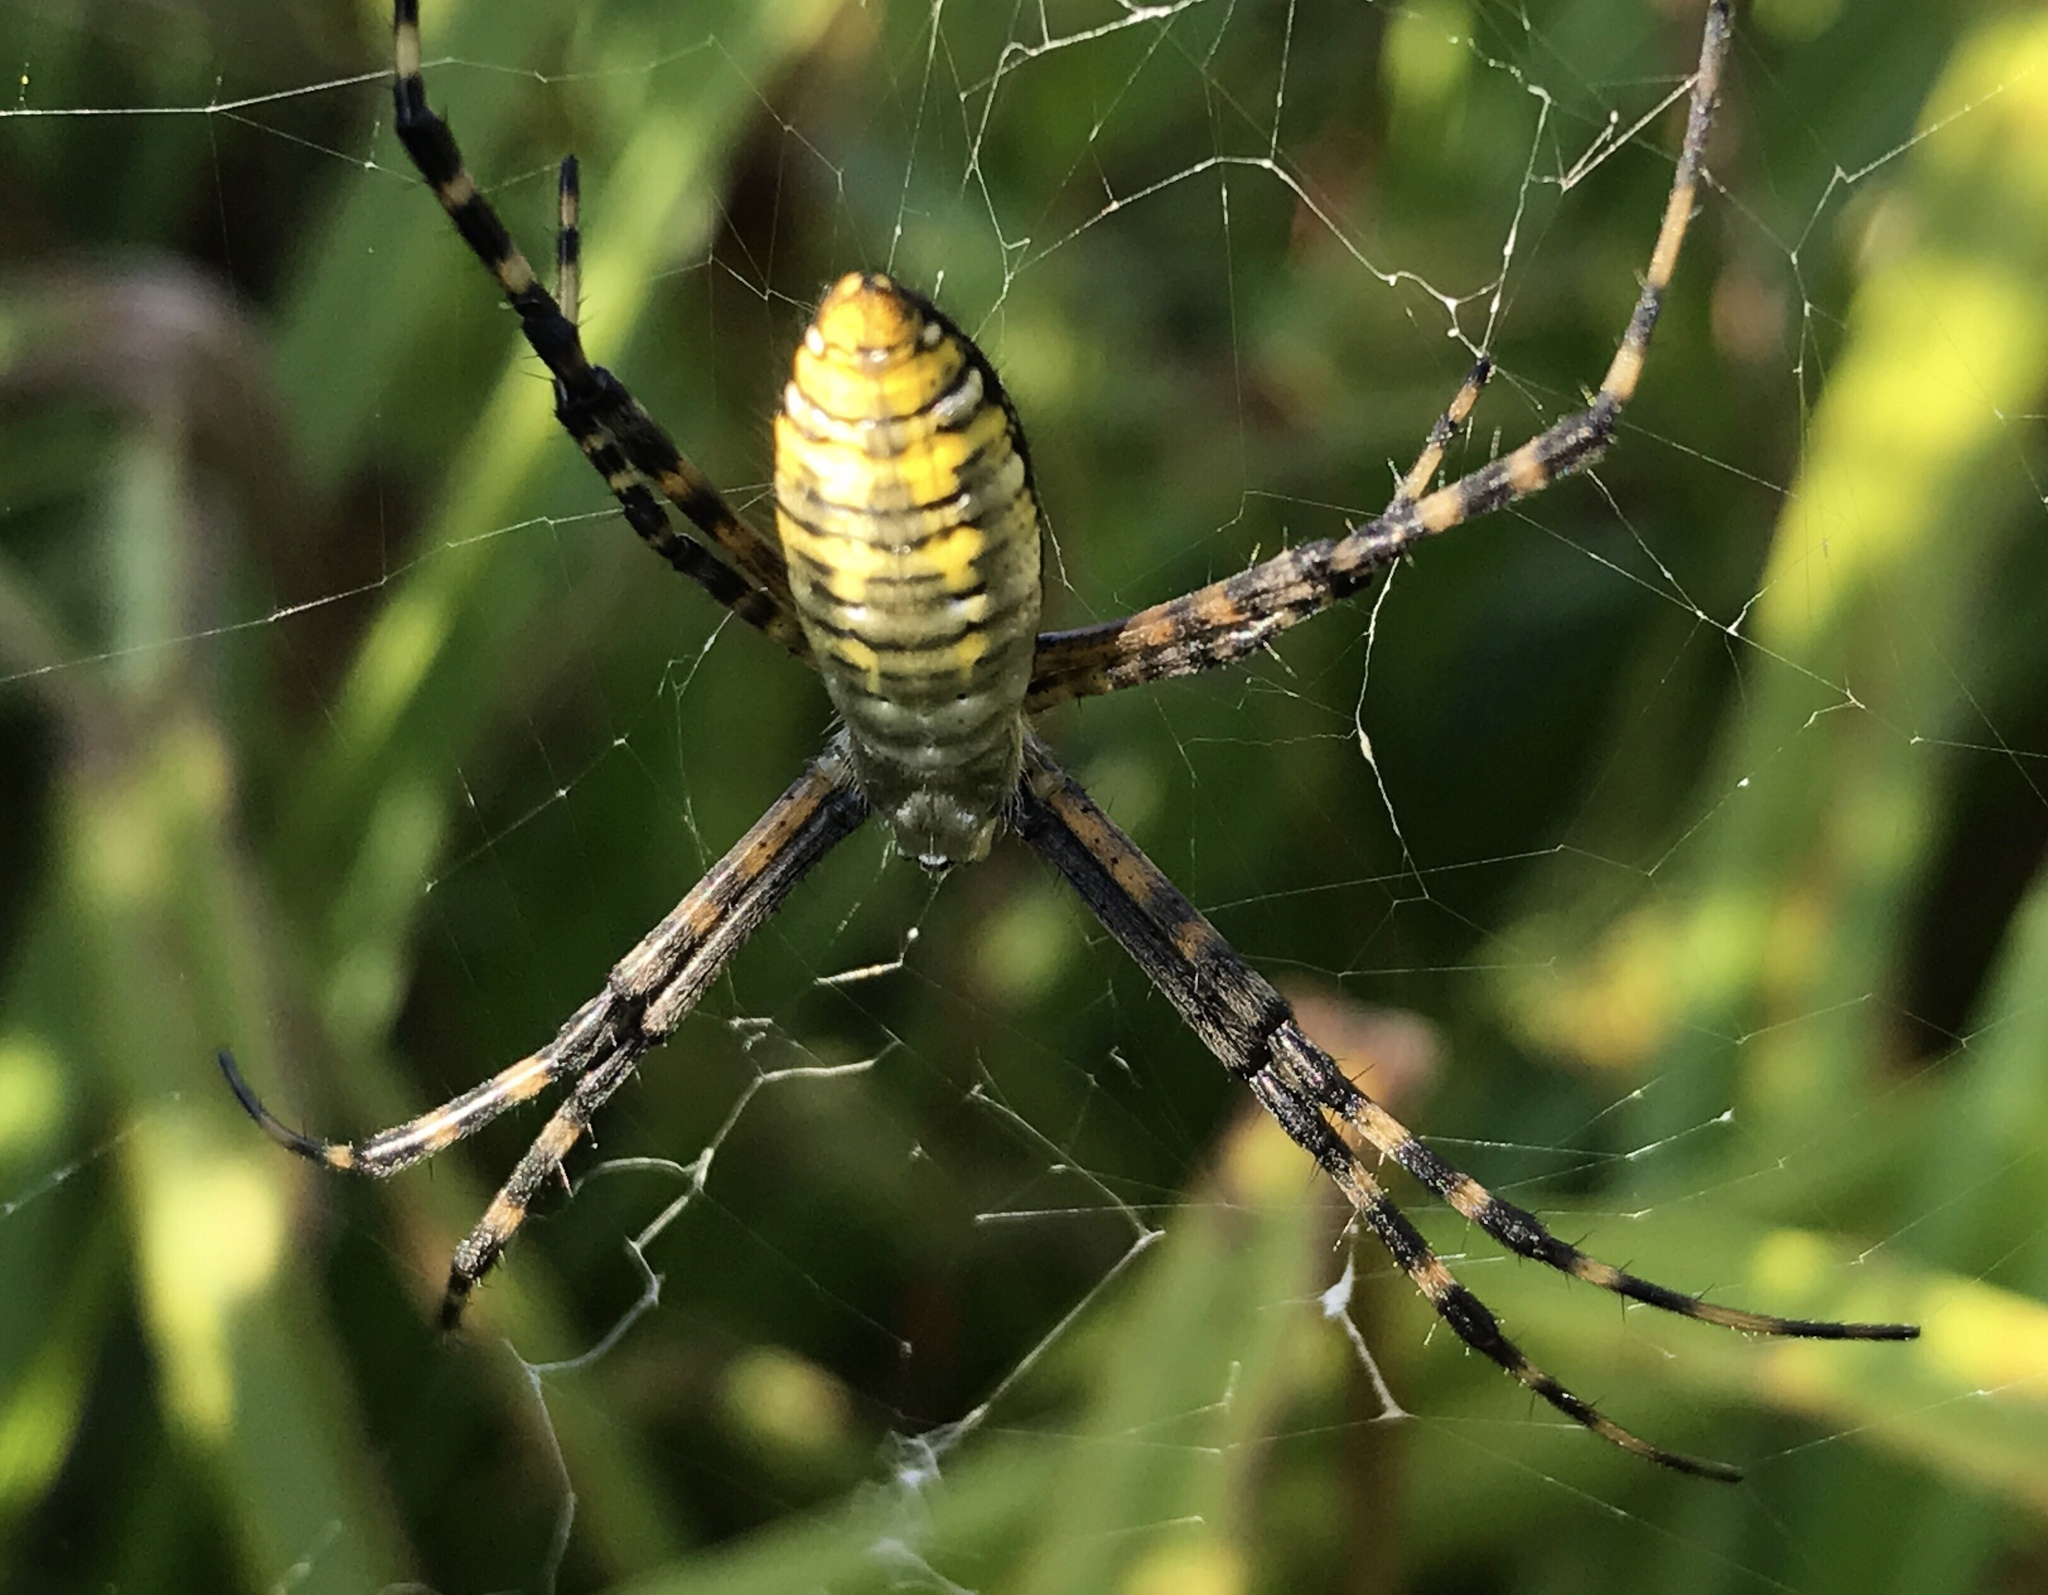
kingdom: Animalia
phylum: Arthropoda
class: Arachnida
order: Araneae
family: Araneidae
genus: Argiope
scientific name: Argiope trifasciata
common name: Banded garden spider
